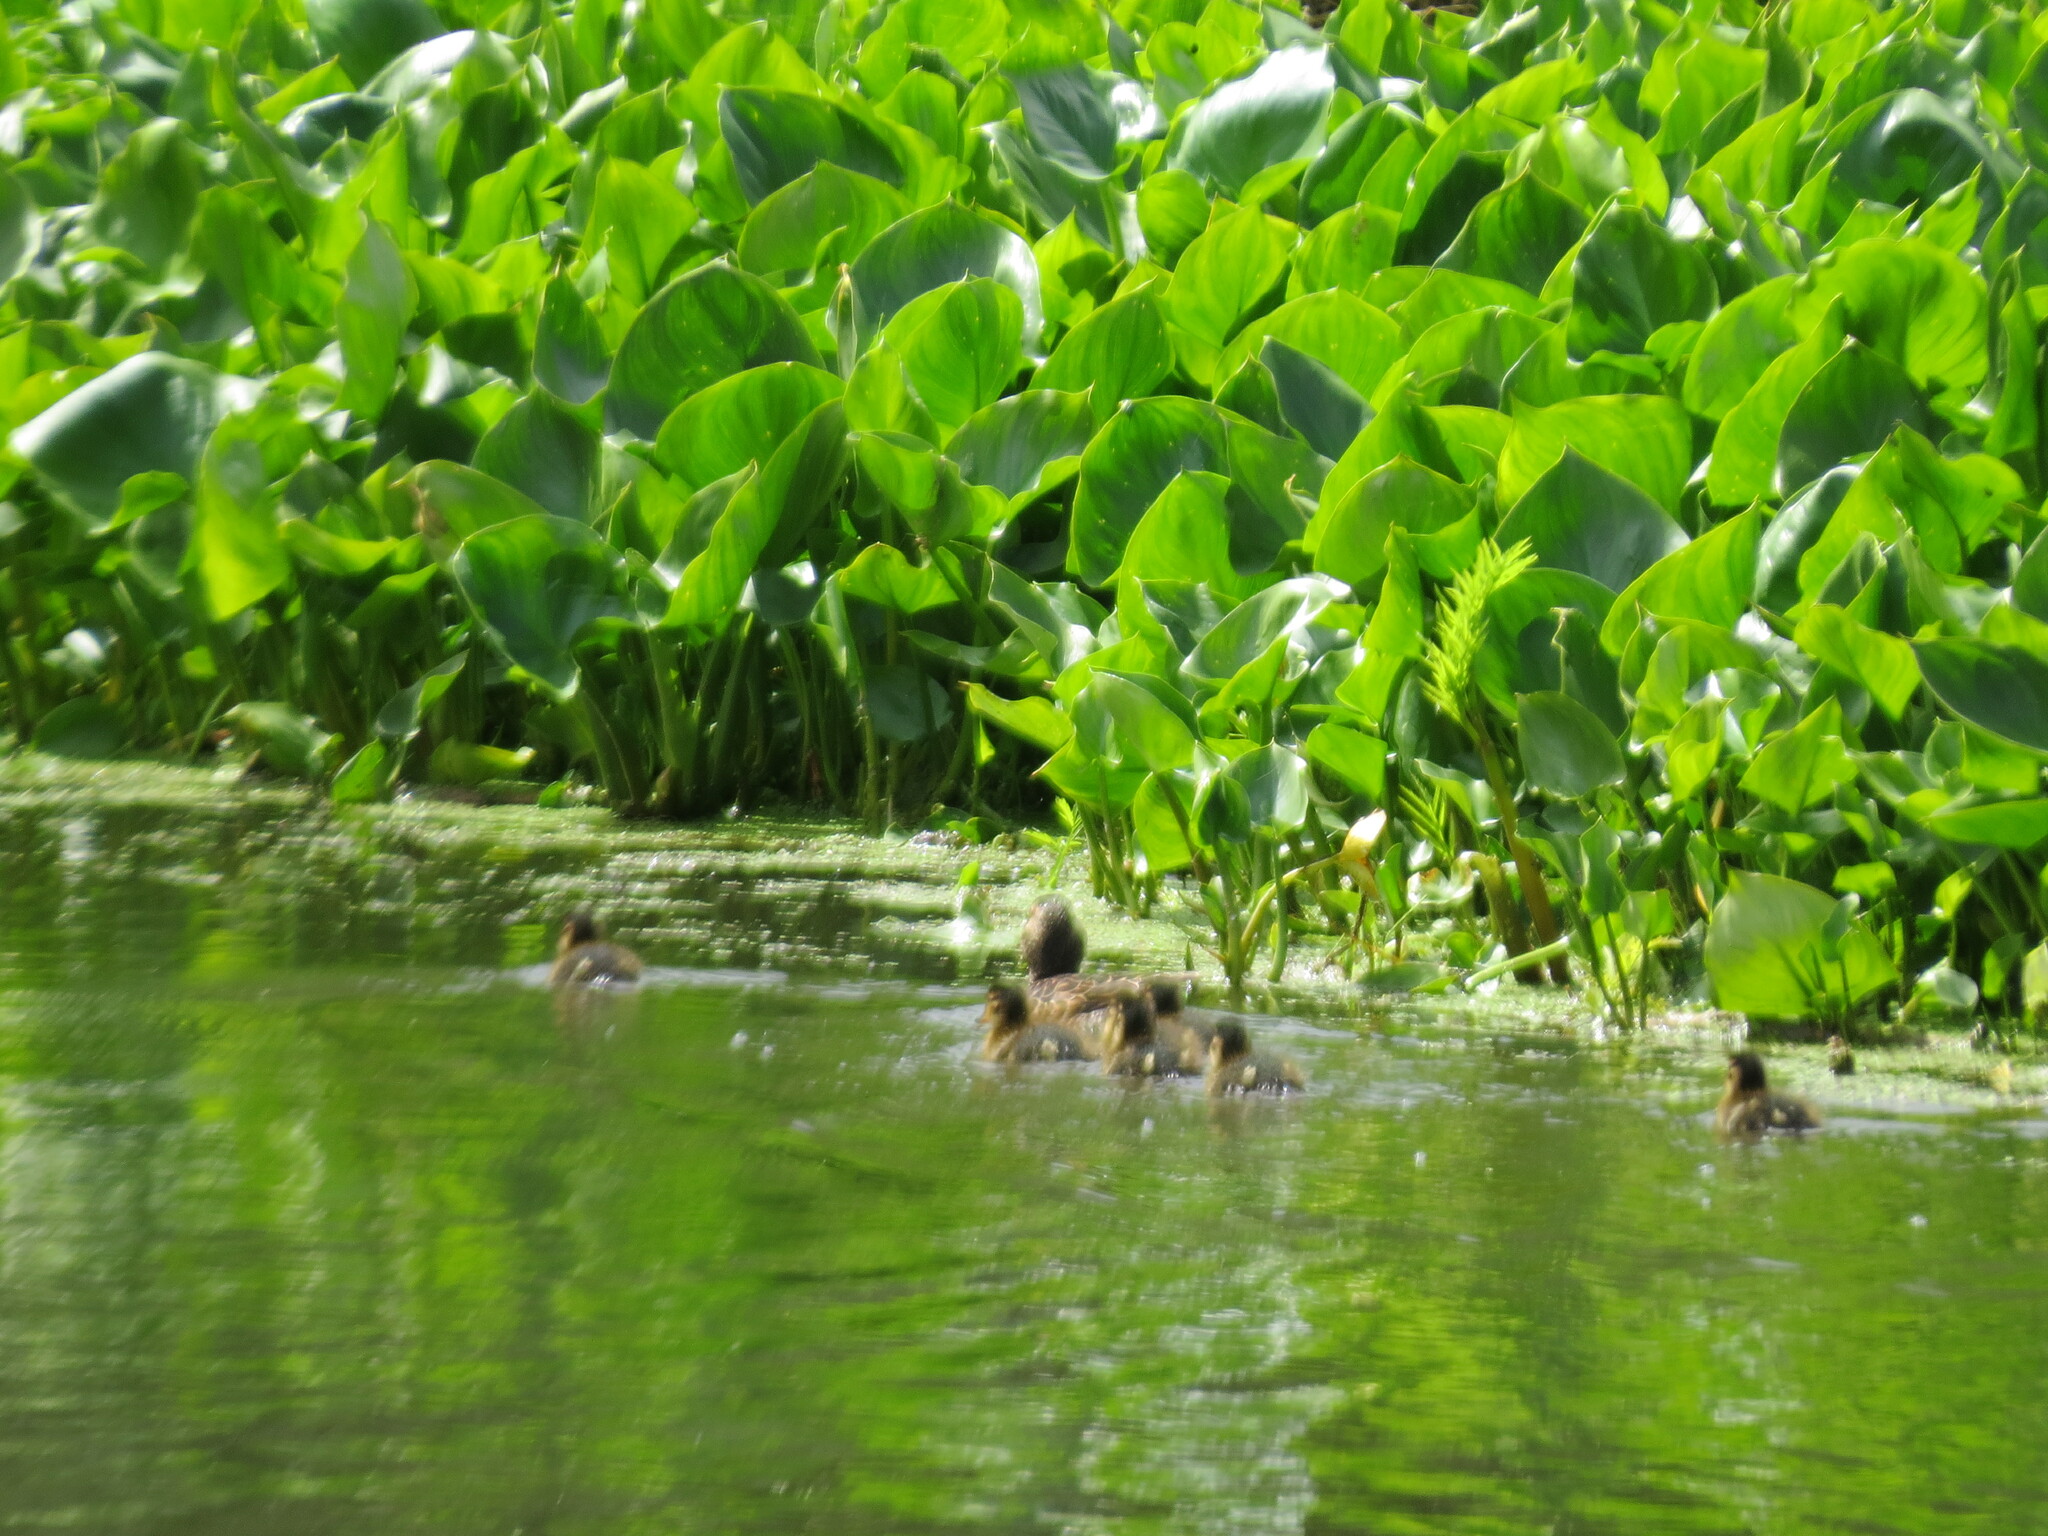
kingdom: Animalia
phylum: Chordata
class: Aves
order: Anseriformes
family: Anatidae
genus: Anas
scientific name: Anas crecca
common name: Eurasian teal
